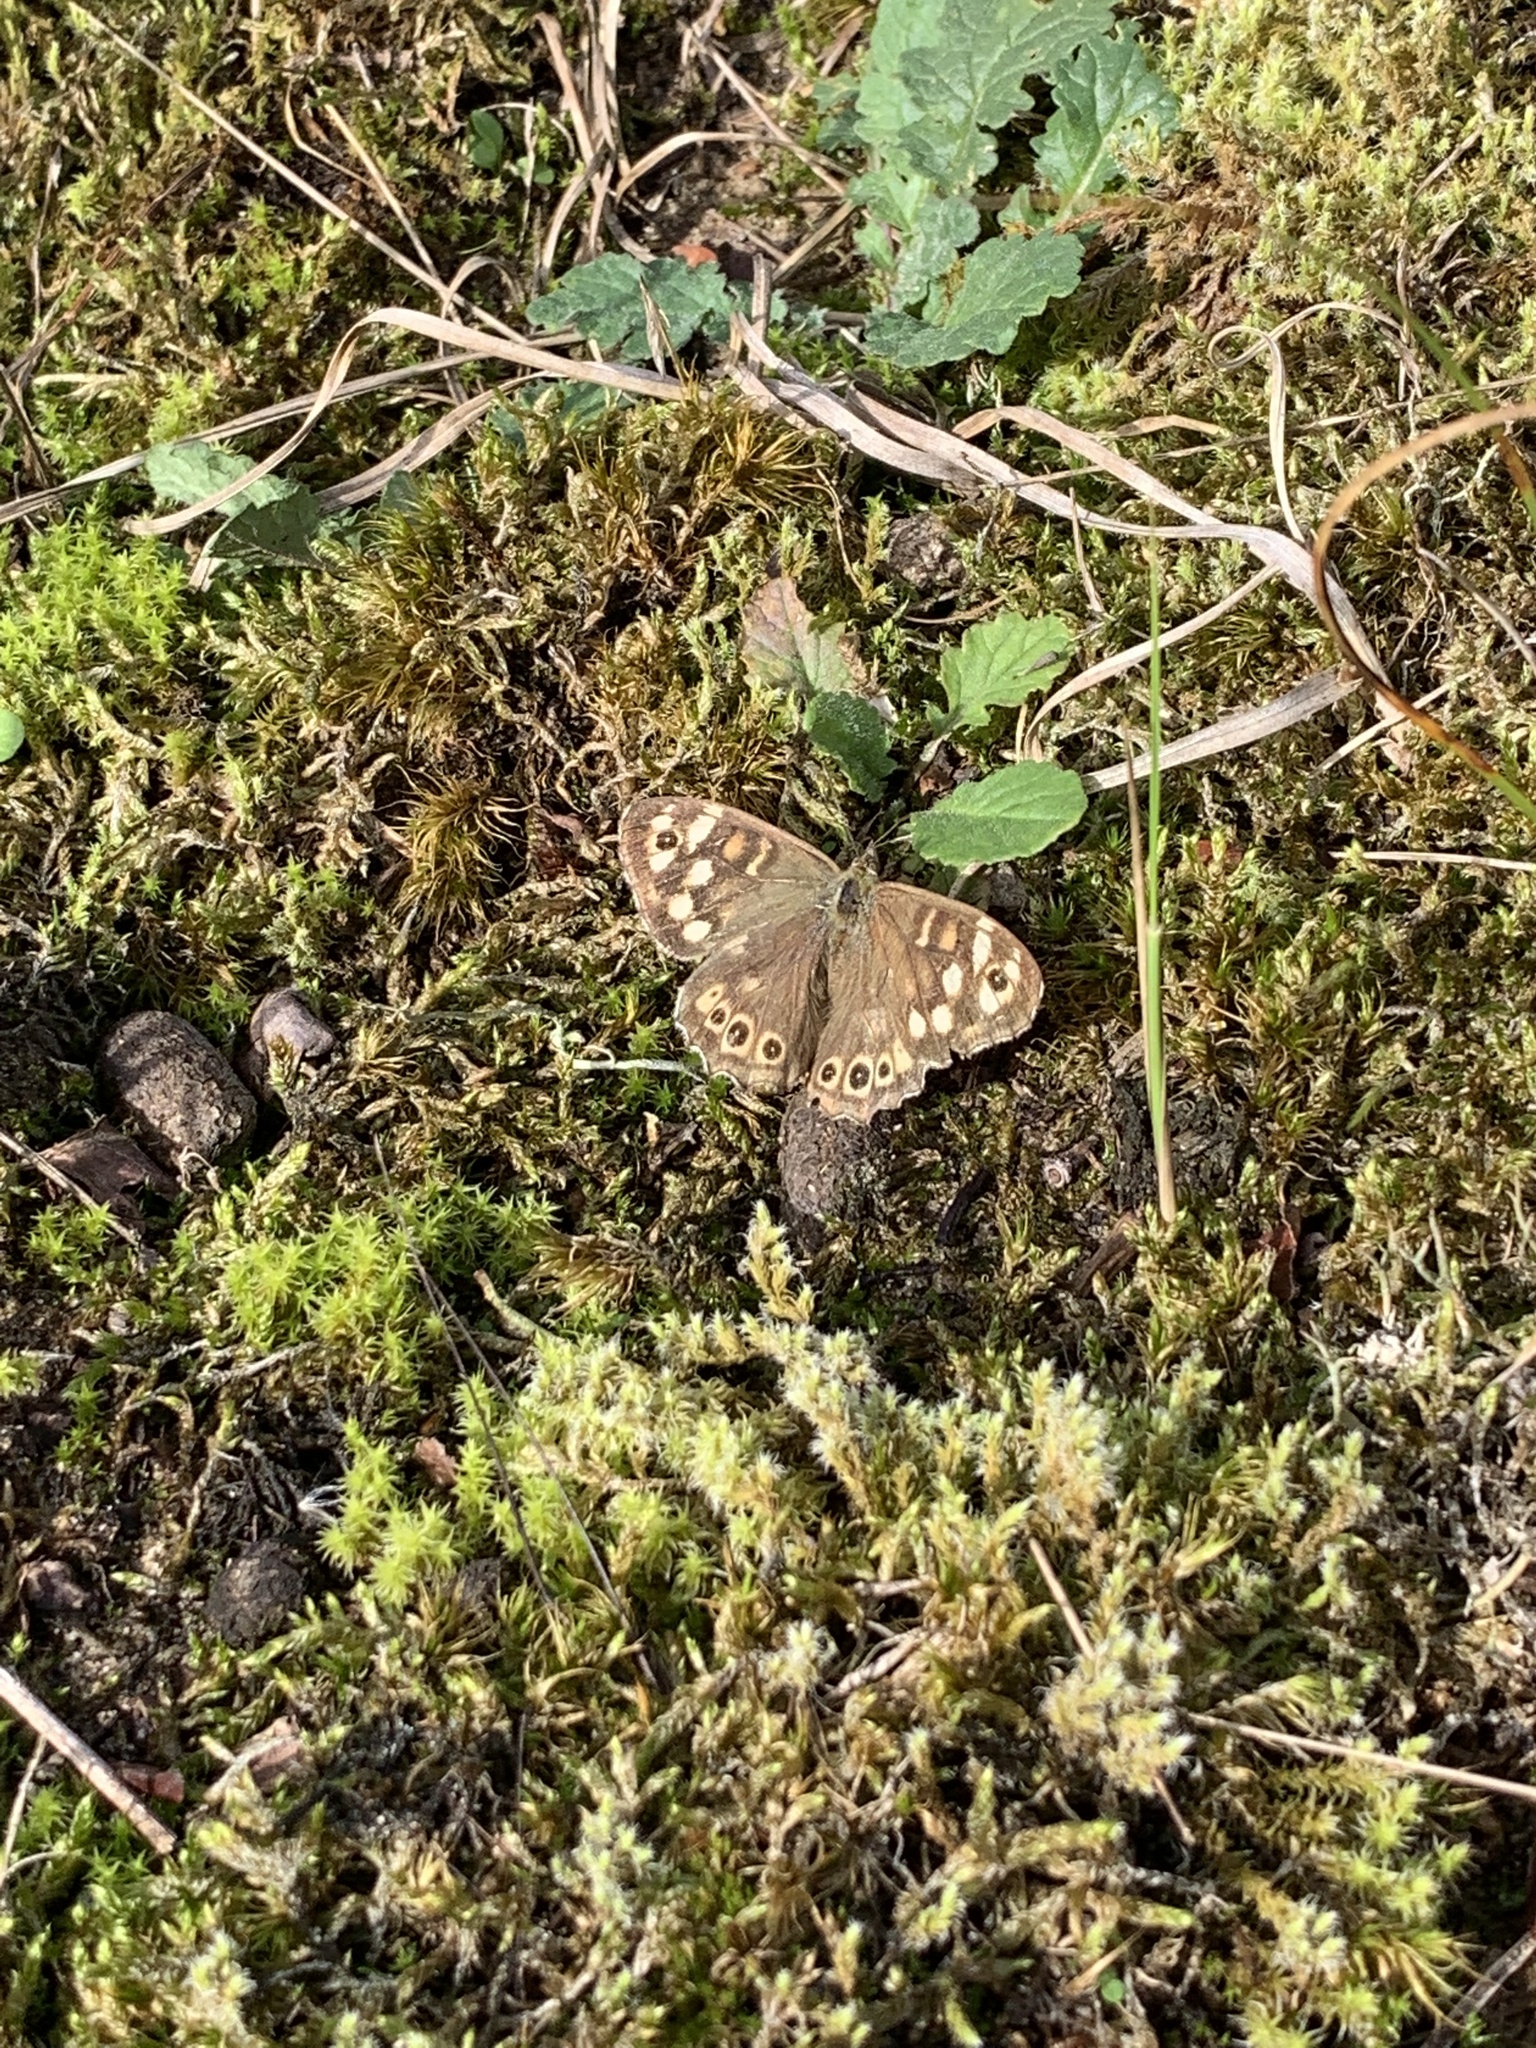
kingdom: Animalia
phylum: Arthropoda
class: Insecta
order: Lepidoptera
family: Nymphalidae
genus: Pararge
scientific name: Pararge aegeria
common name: Speckled wood
